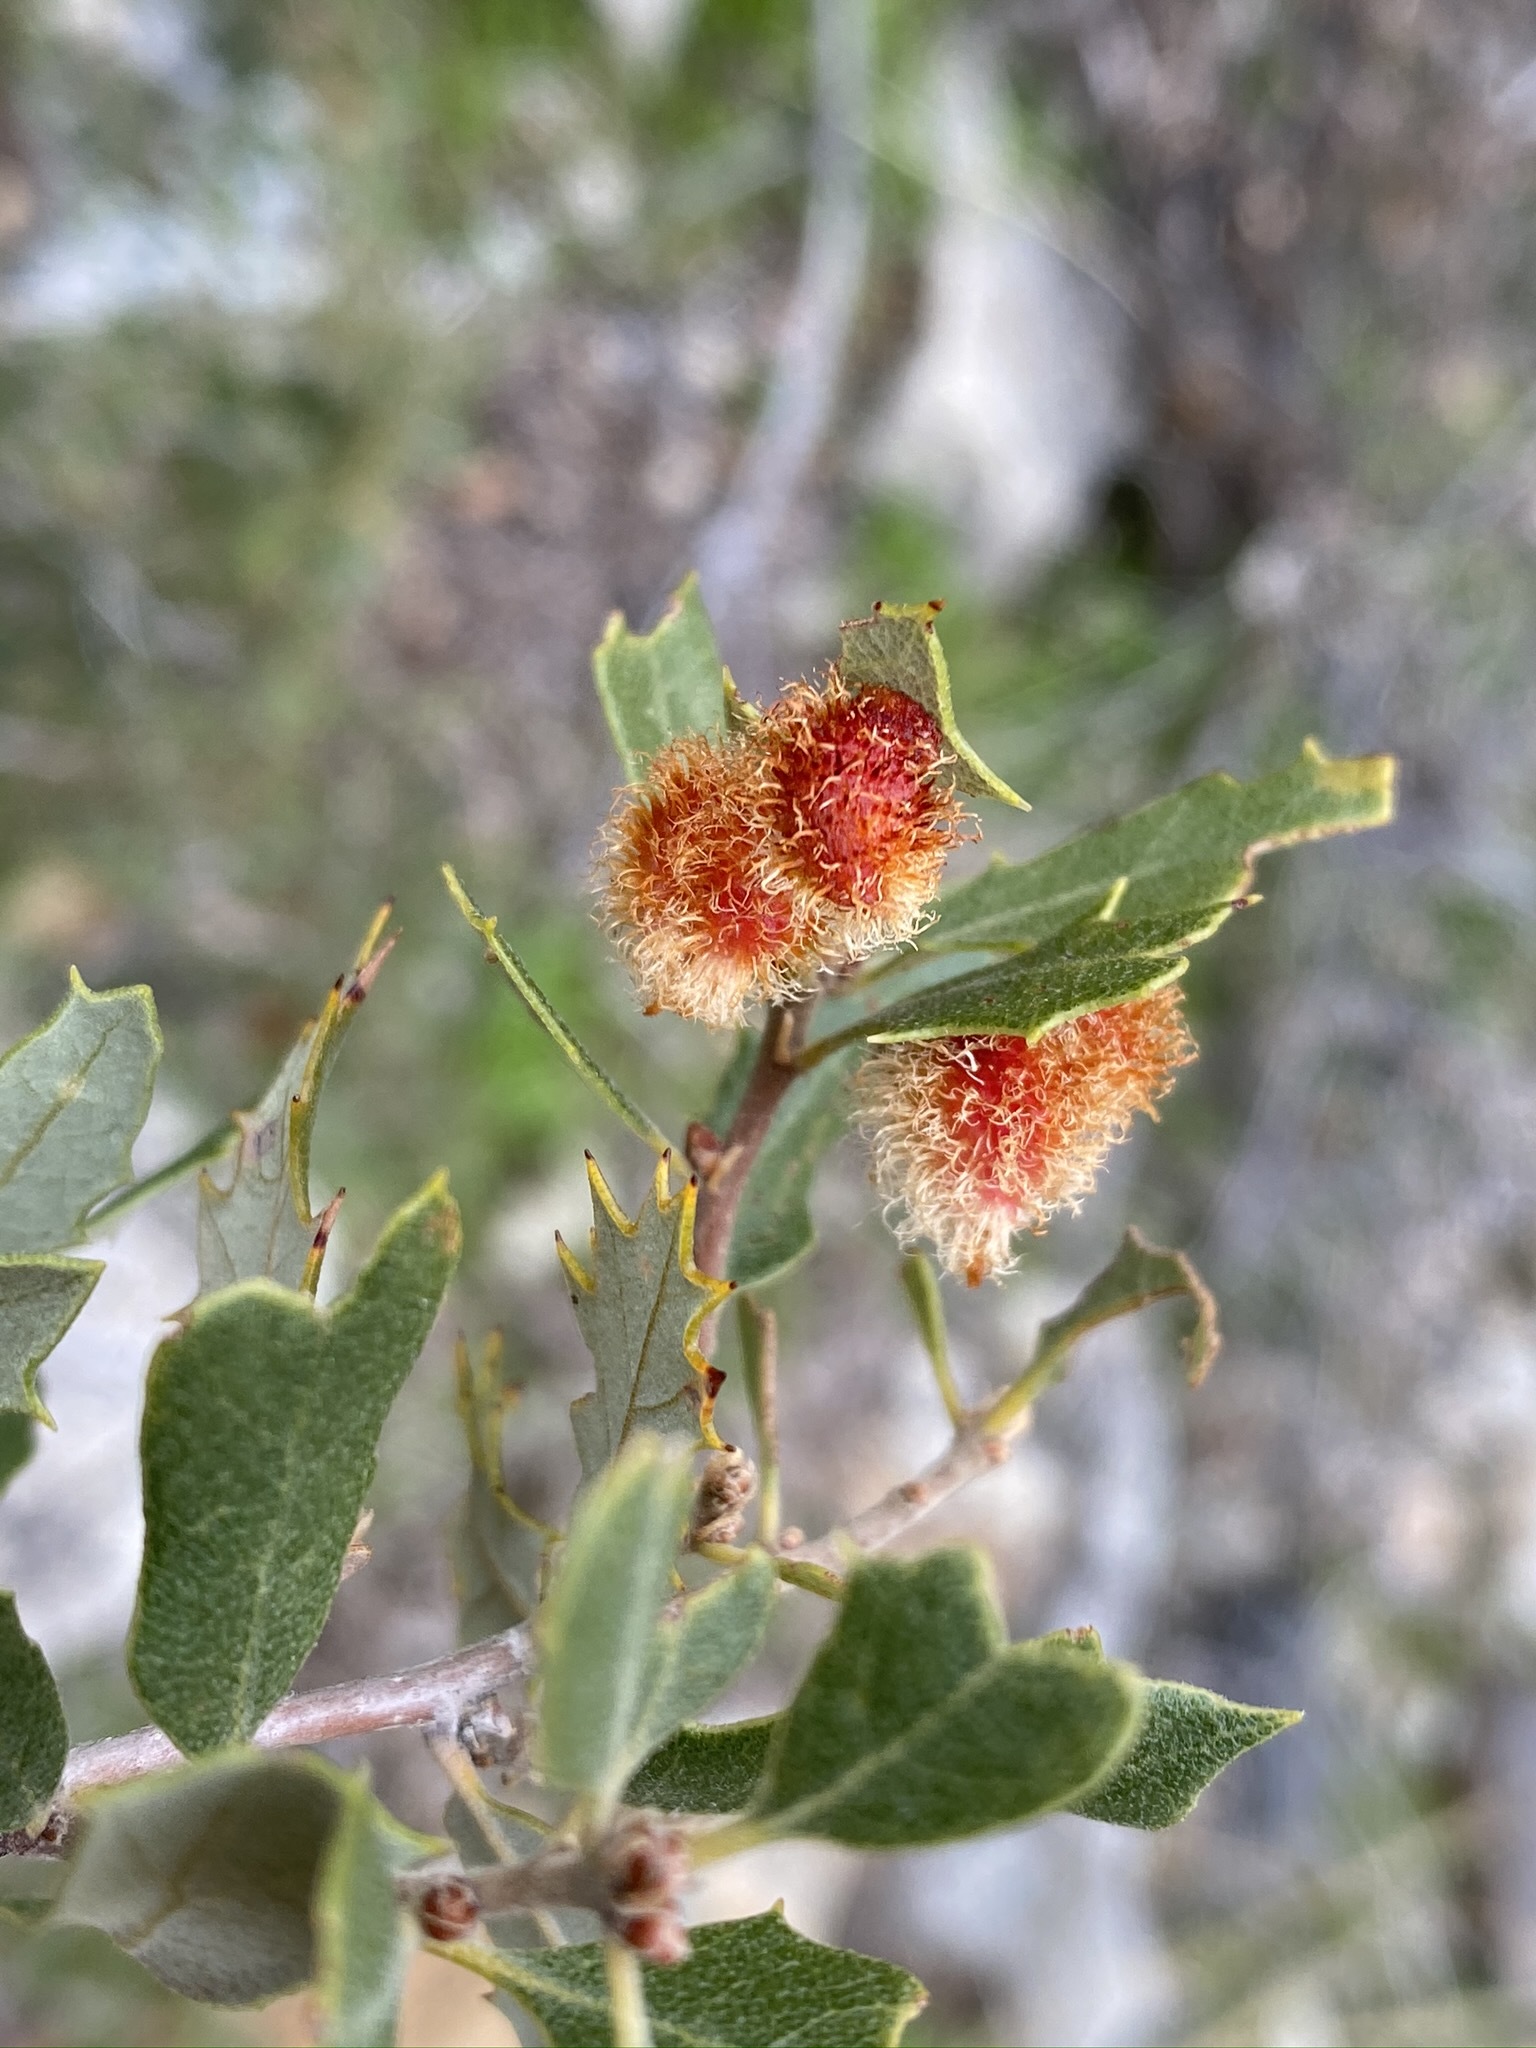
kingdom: Animalia
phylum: Arthropoda
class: Insecta
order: Hymenoptera
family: Cynipidae
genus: Andricus
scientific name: Andricus
